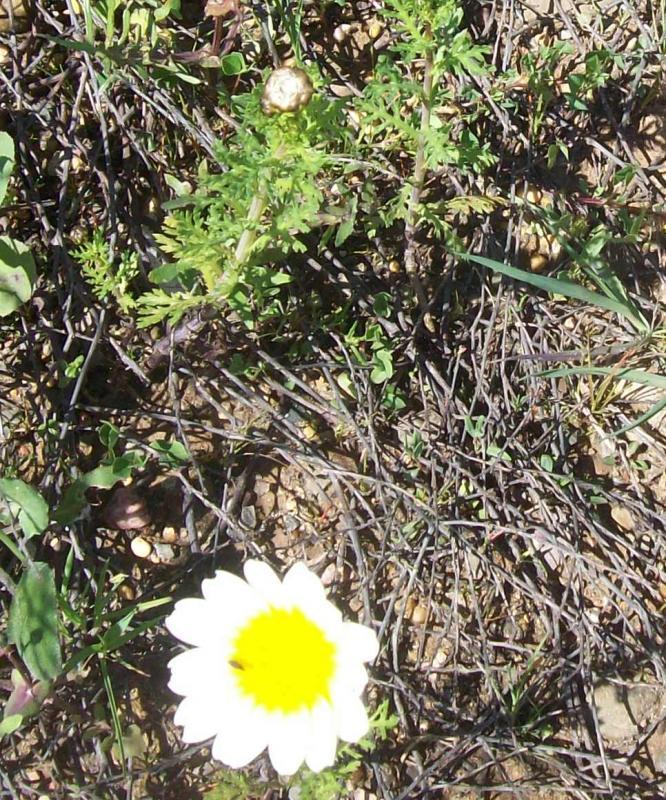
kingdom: Plantae
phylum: Tracheophyta
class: Magnoliopsida
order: Asterales
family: Asteraceae
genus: Glebionis
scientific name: Glebionis coronaria
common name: Crowndaisy
